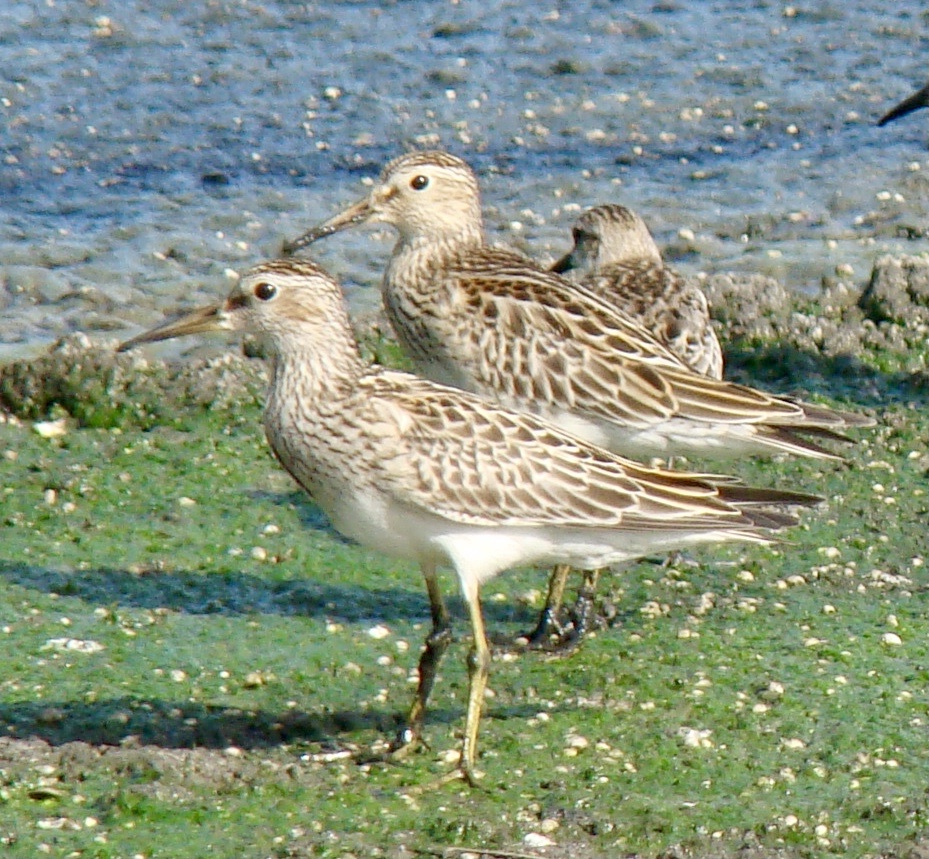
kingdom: Animalia
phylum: Chordata
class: Aves
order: Charadriiformes
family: Scolopacidae
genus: Calidris
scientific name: Calidris melanotos
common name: Pectoral sandpiper
